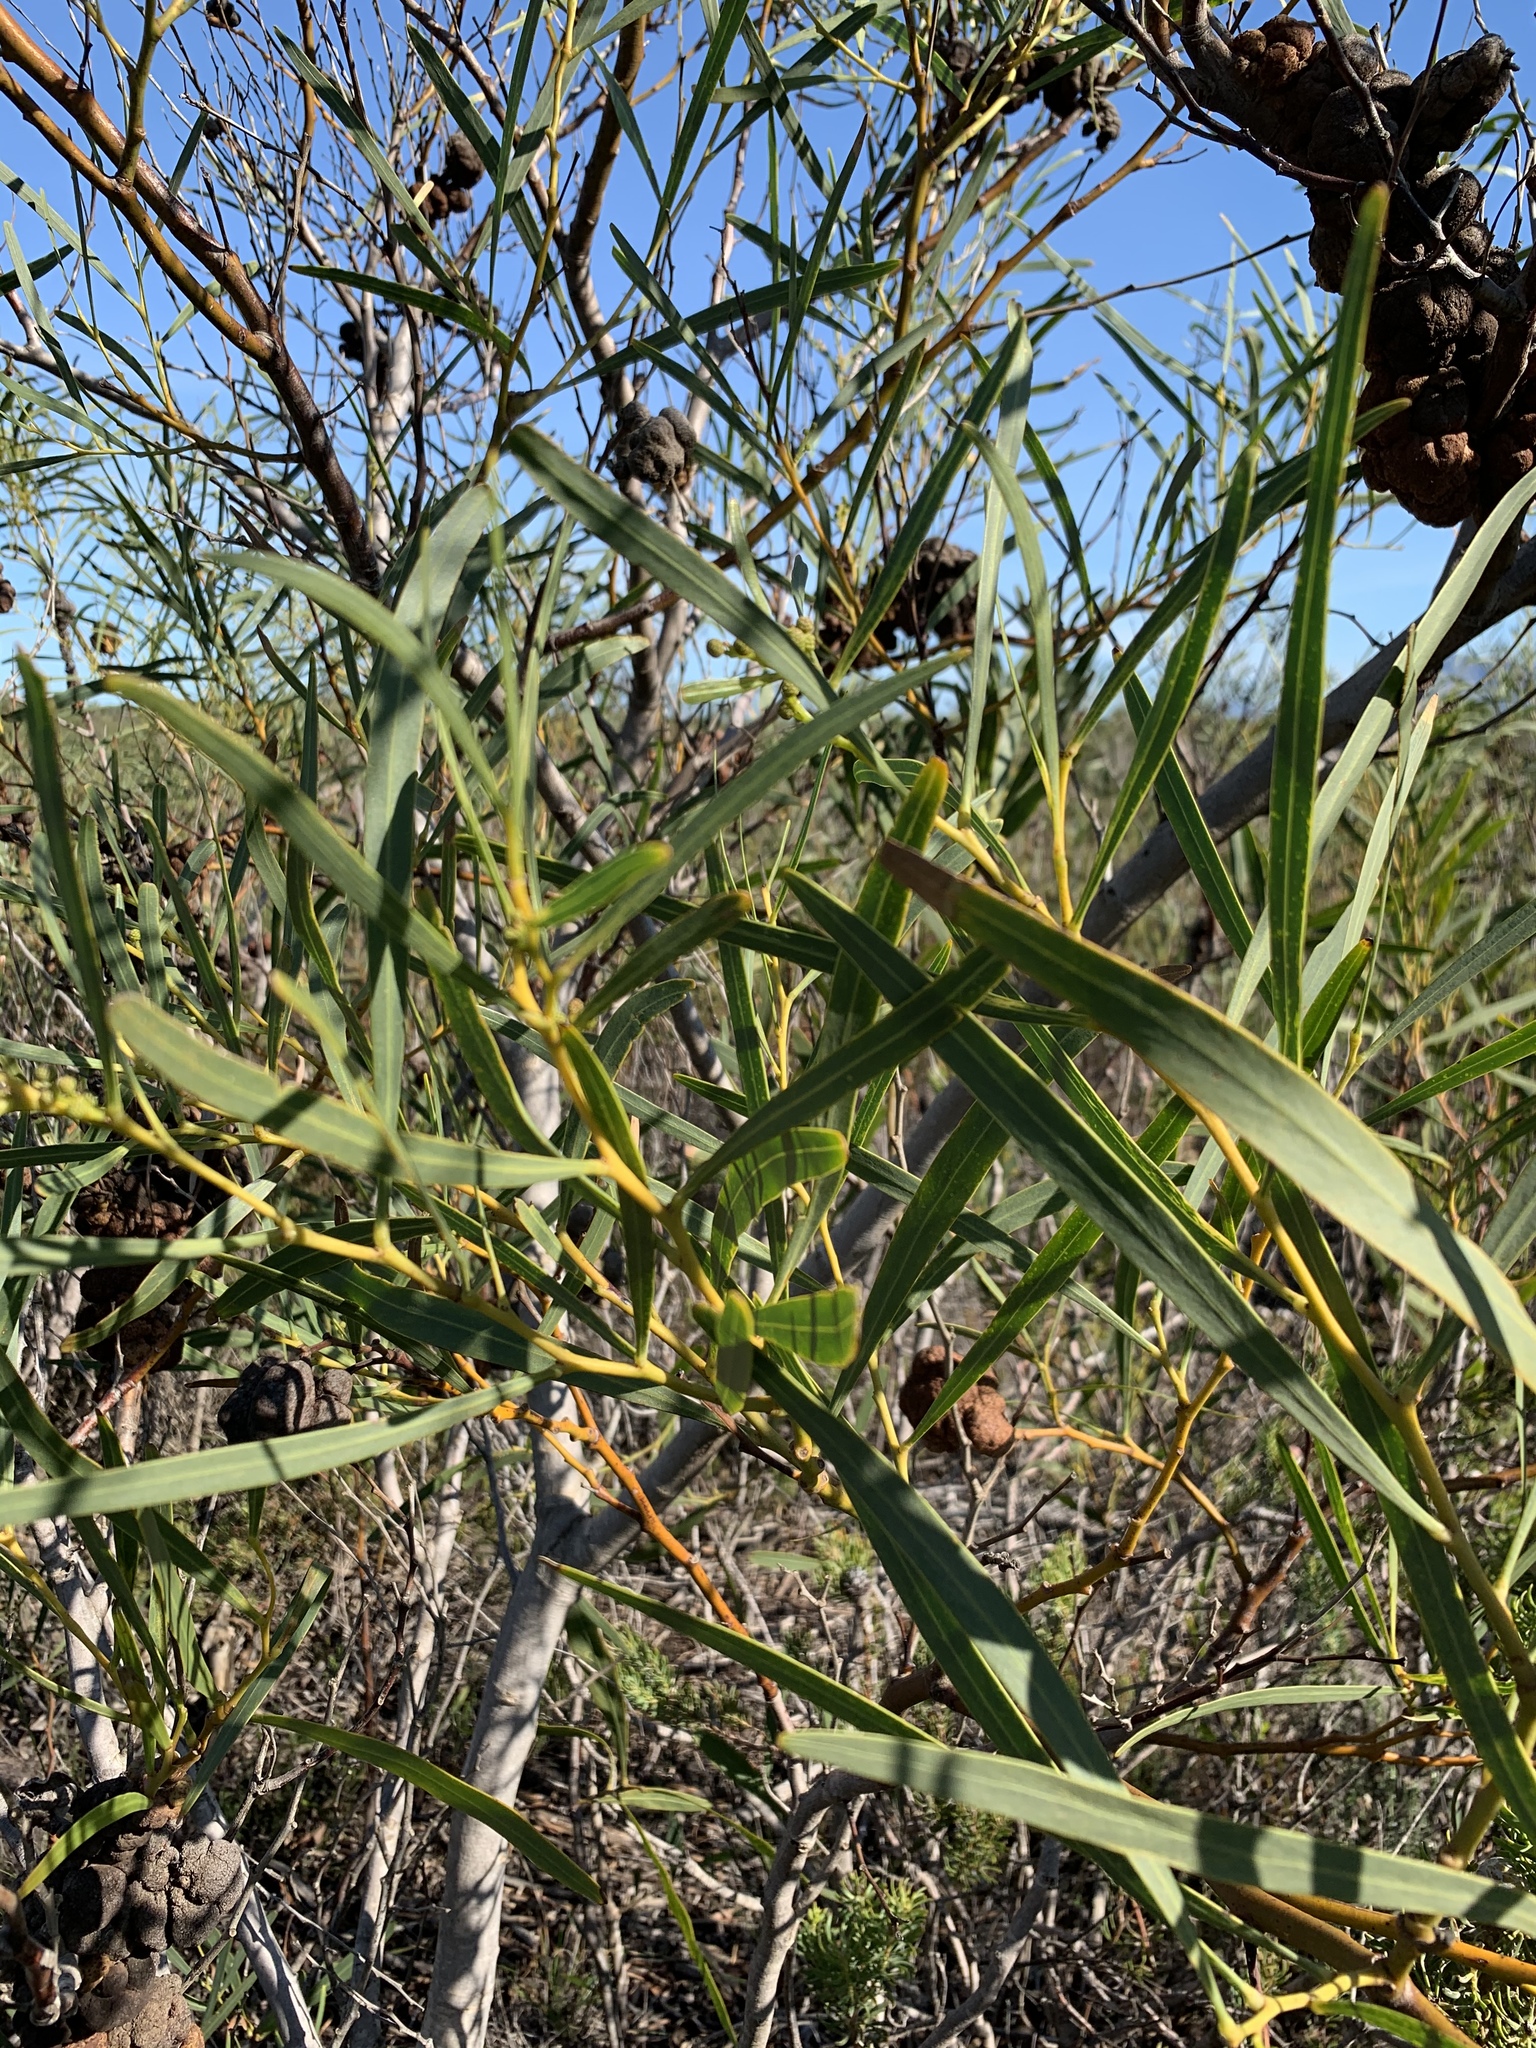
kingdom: Plantae
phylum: Tracheophyta
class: Magnoliopsida
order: Fabales
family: Fabaceae
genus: Acacia
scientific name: Acacia saligna
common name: Orange wattle
